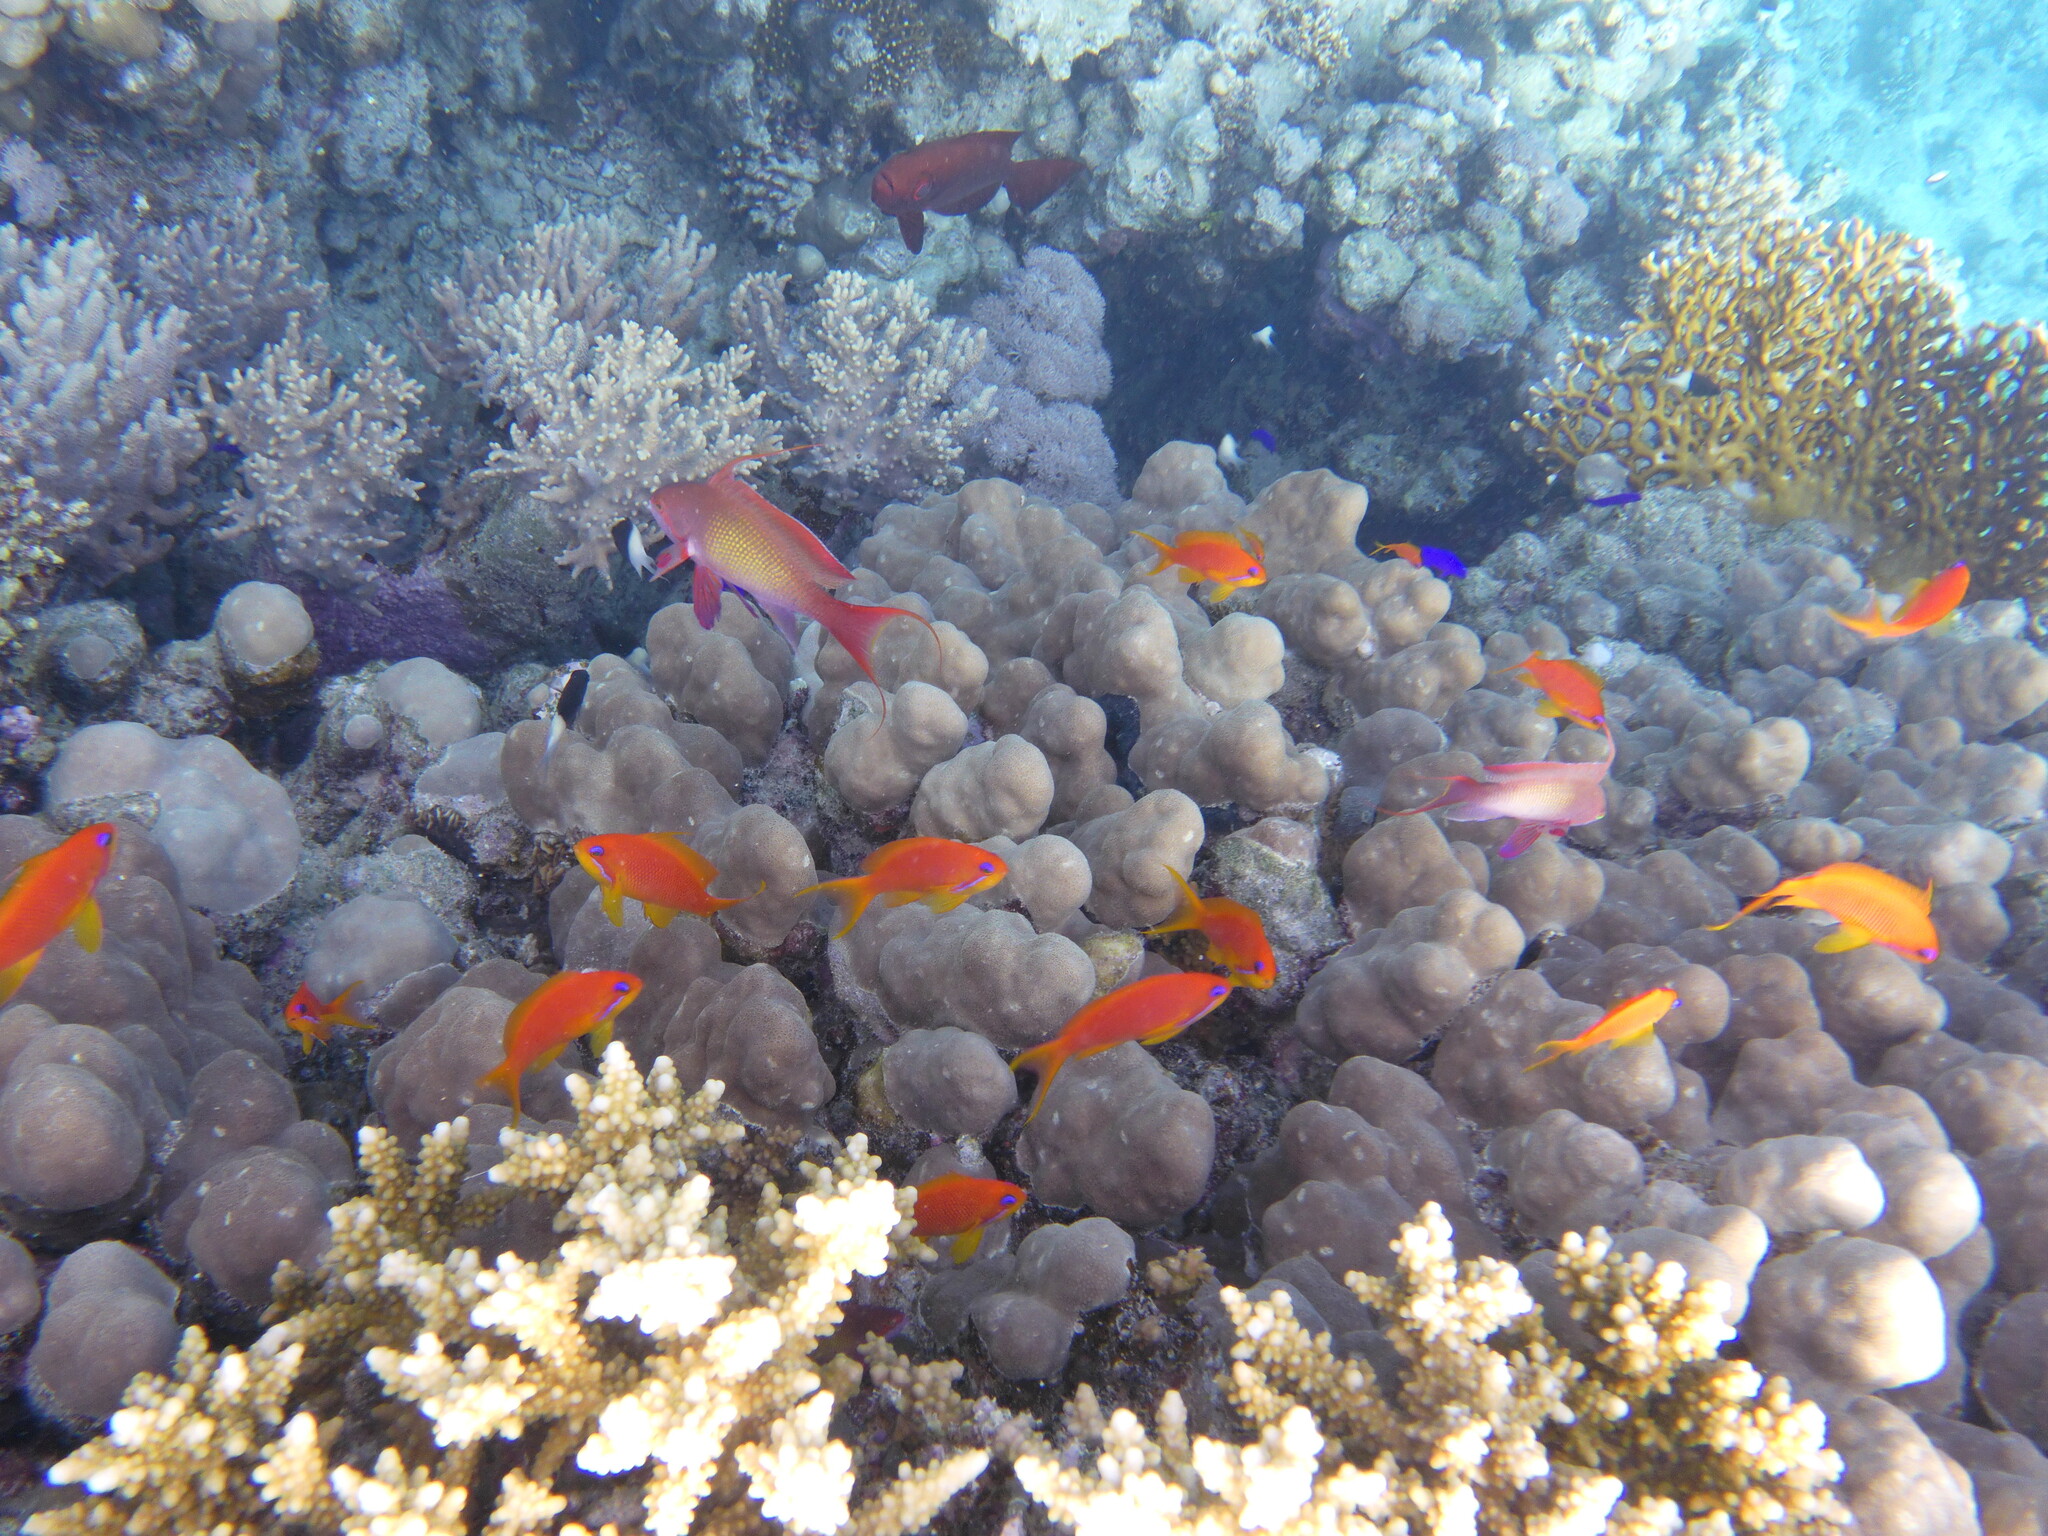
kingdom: Animalia
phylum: Chordata
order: Perciformes
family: Serranidae
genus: Pseudanthias
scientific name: Pseudanthias squamipinnis
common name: Scalefin anthias
